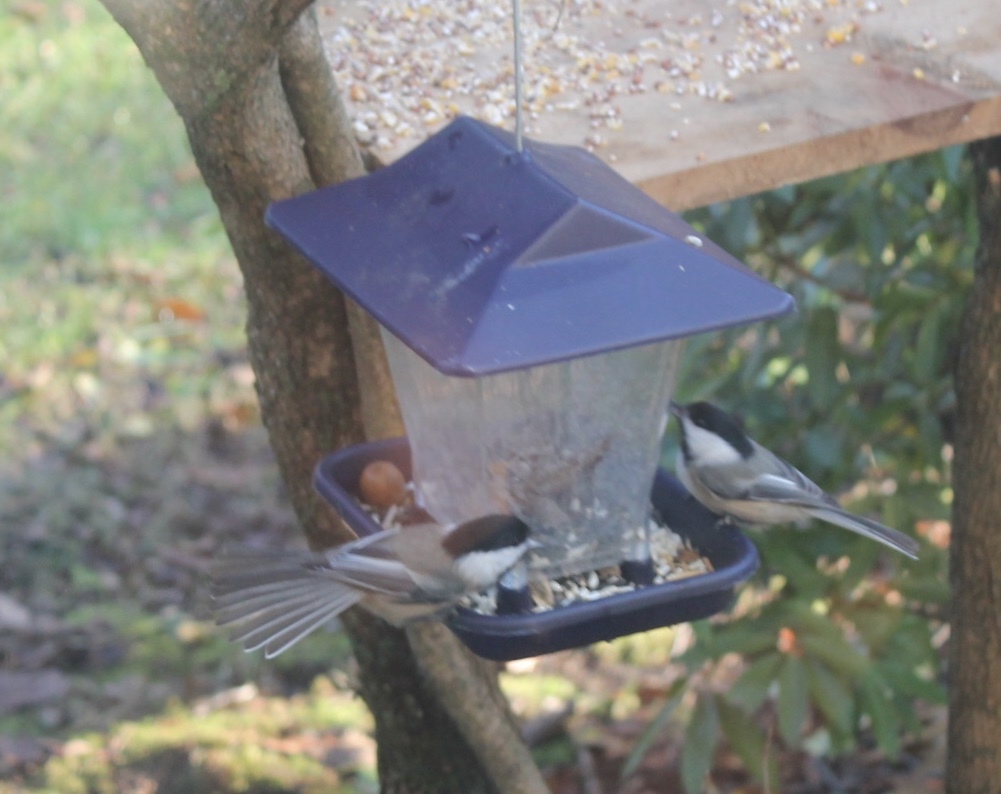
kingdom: Animalia
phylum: Chordata
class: Aves
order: Passeriformes
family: Paridae
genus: Poecile
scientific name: Poecile atricapillus
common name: Black-capped chickadee
